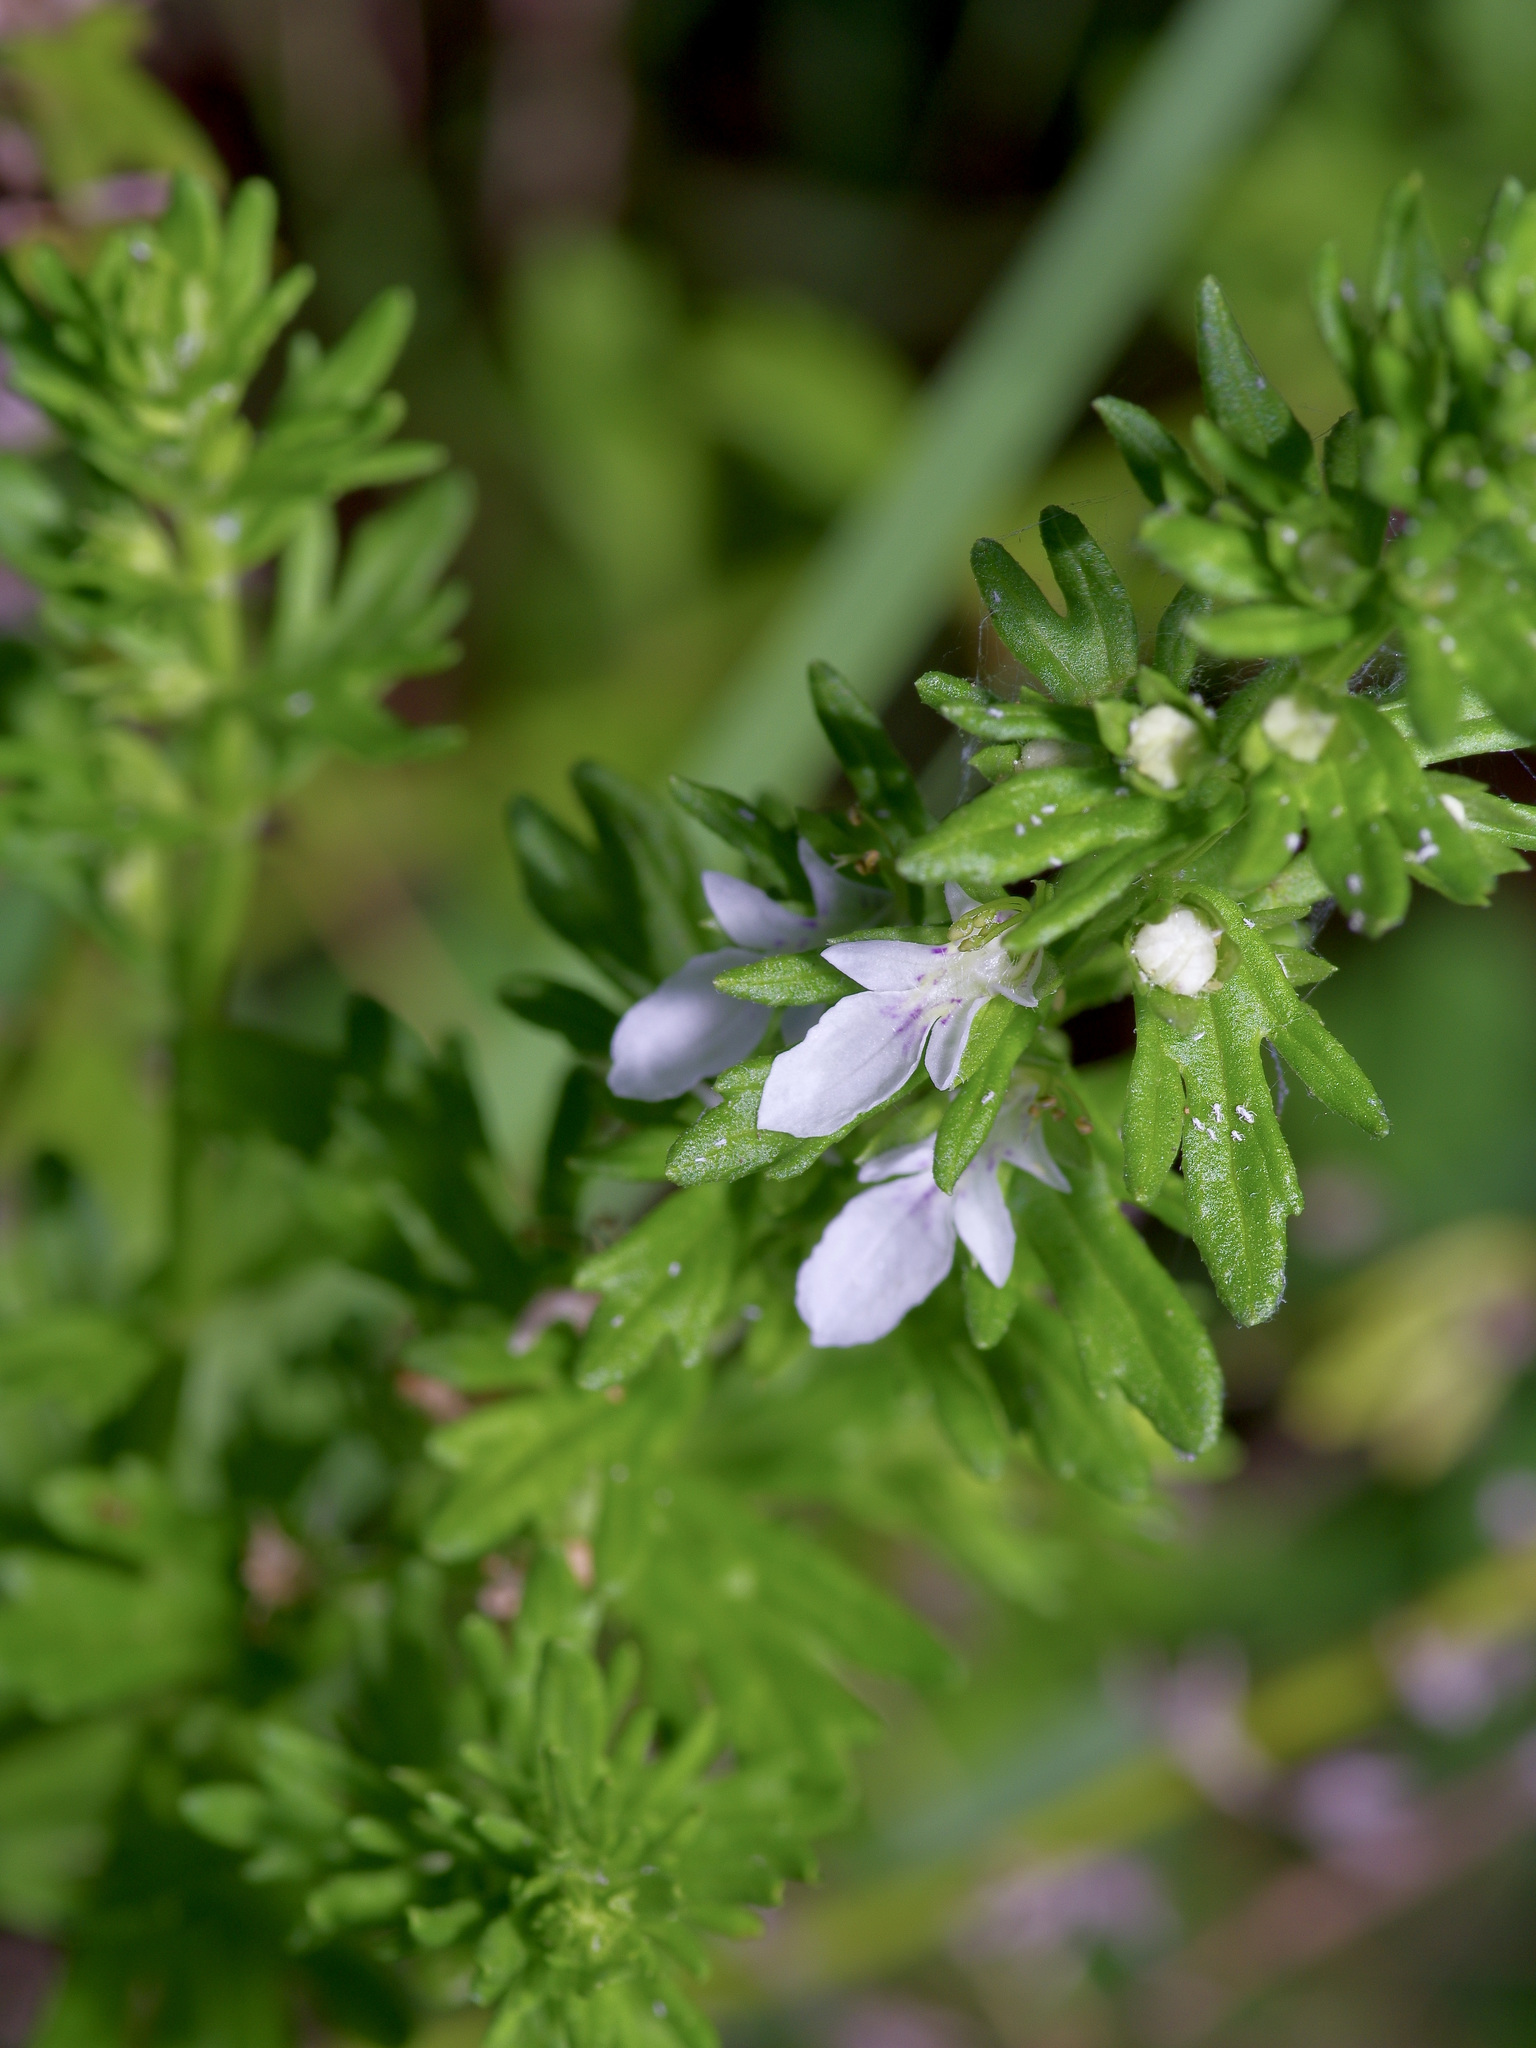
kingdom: Plantae
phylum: Tracheophyta
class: Magnoliopsida
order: Lamiales
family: Lamiaceae
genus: Teucrium
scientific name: Teucrium cubense
